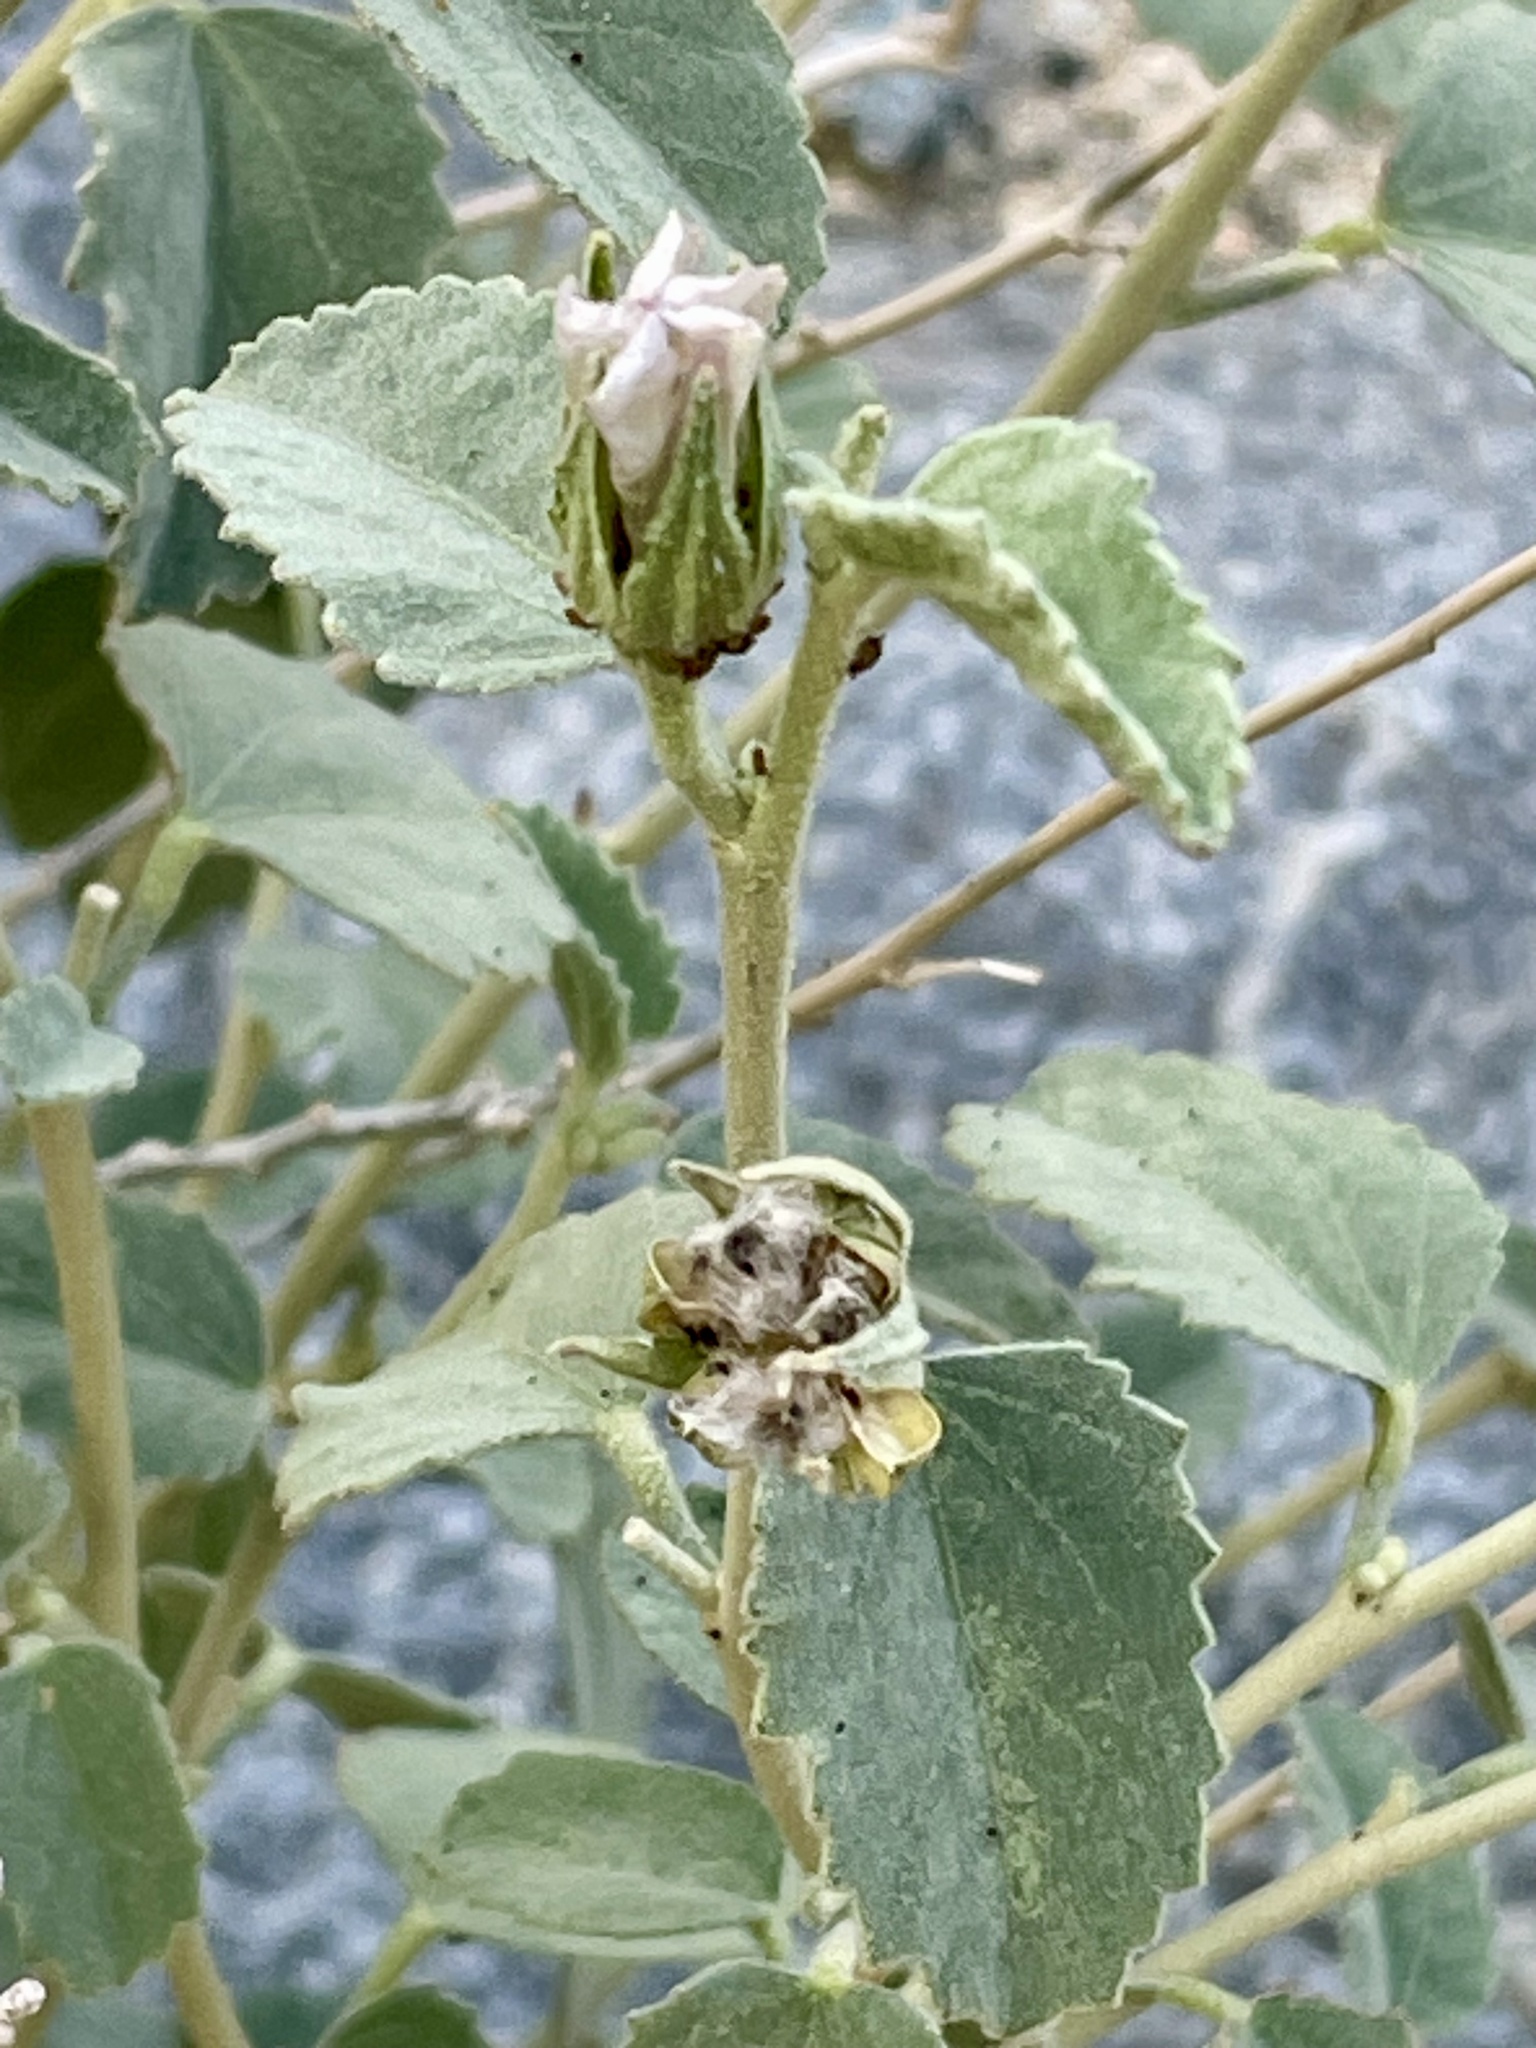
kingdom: Plantae
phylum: Tracheophyta
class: Magnoliopsida
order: Malvales
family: Malvaceae
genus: Hibiscus
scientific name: Hibiscus denudatus
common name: Paleface
